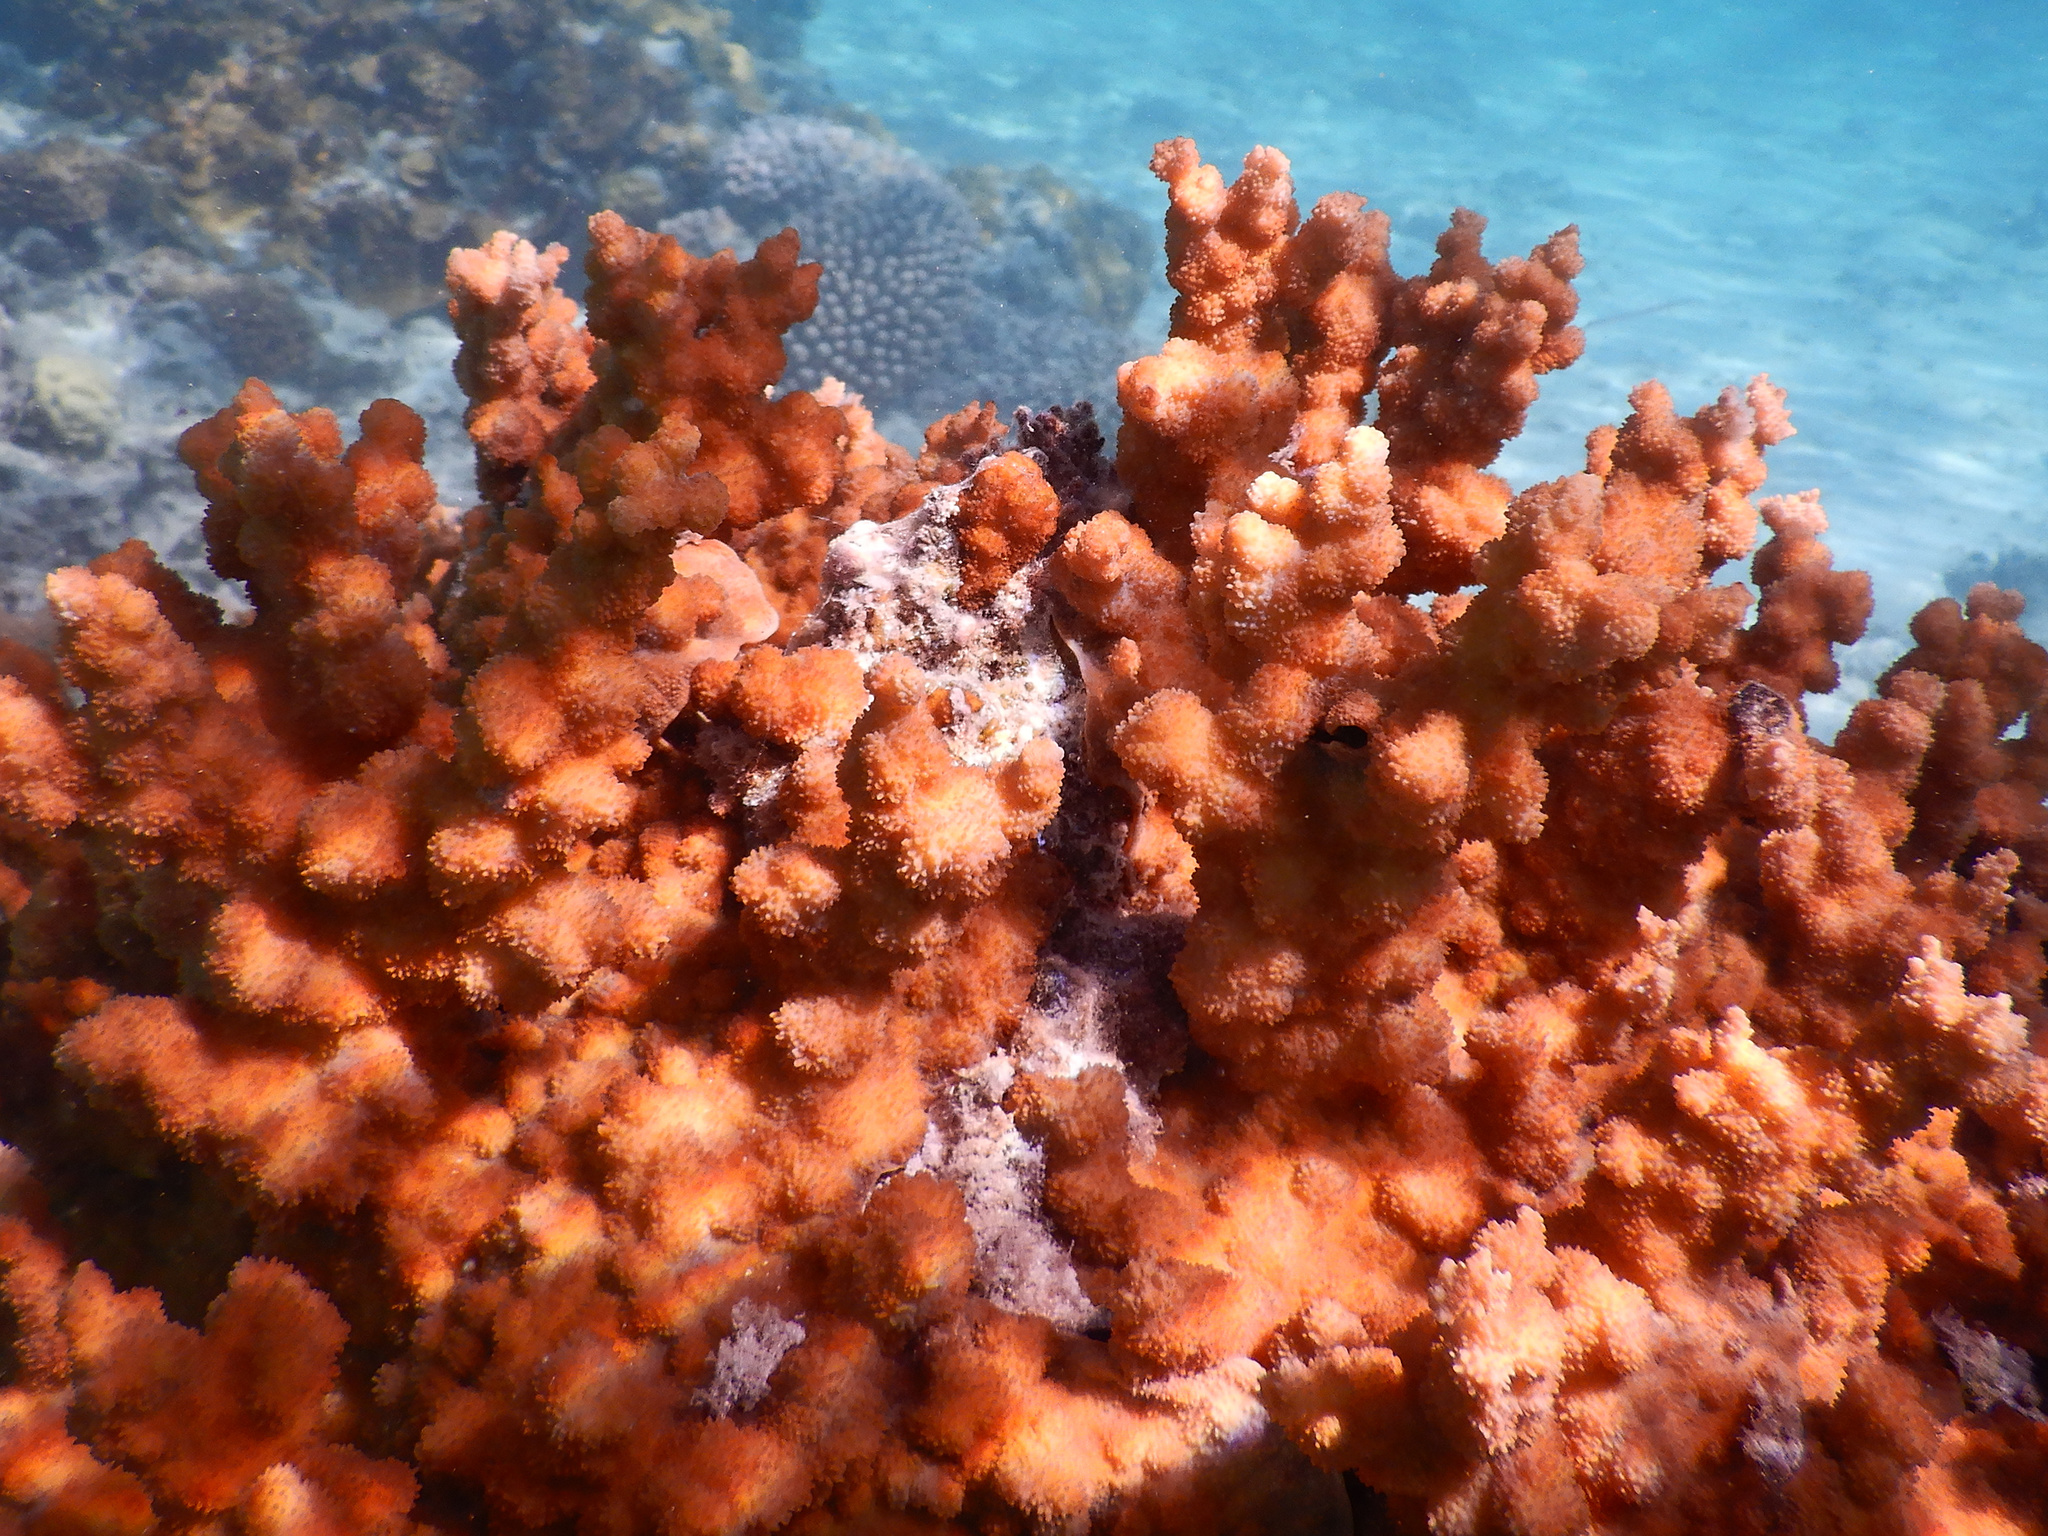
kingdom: Animalia
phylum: Cnidaria
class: Anthozoa
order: Scleractinia
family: Merulinidae
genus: Echinopora
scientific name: Echinopora horrida
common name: Hedgehog coral
